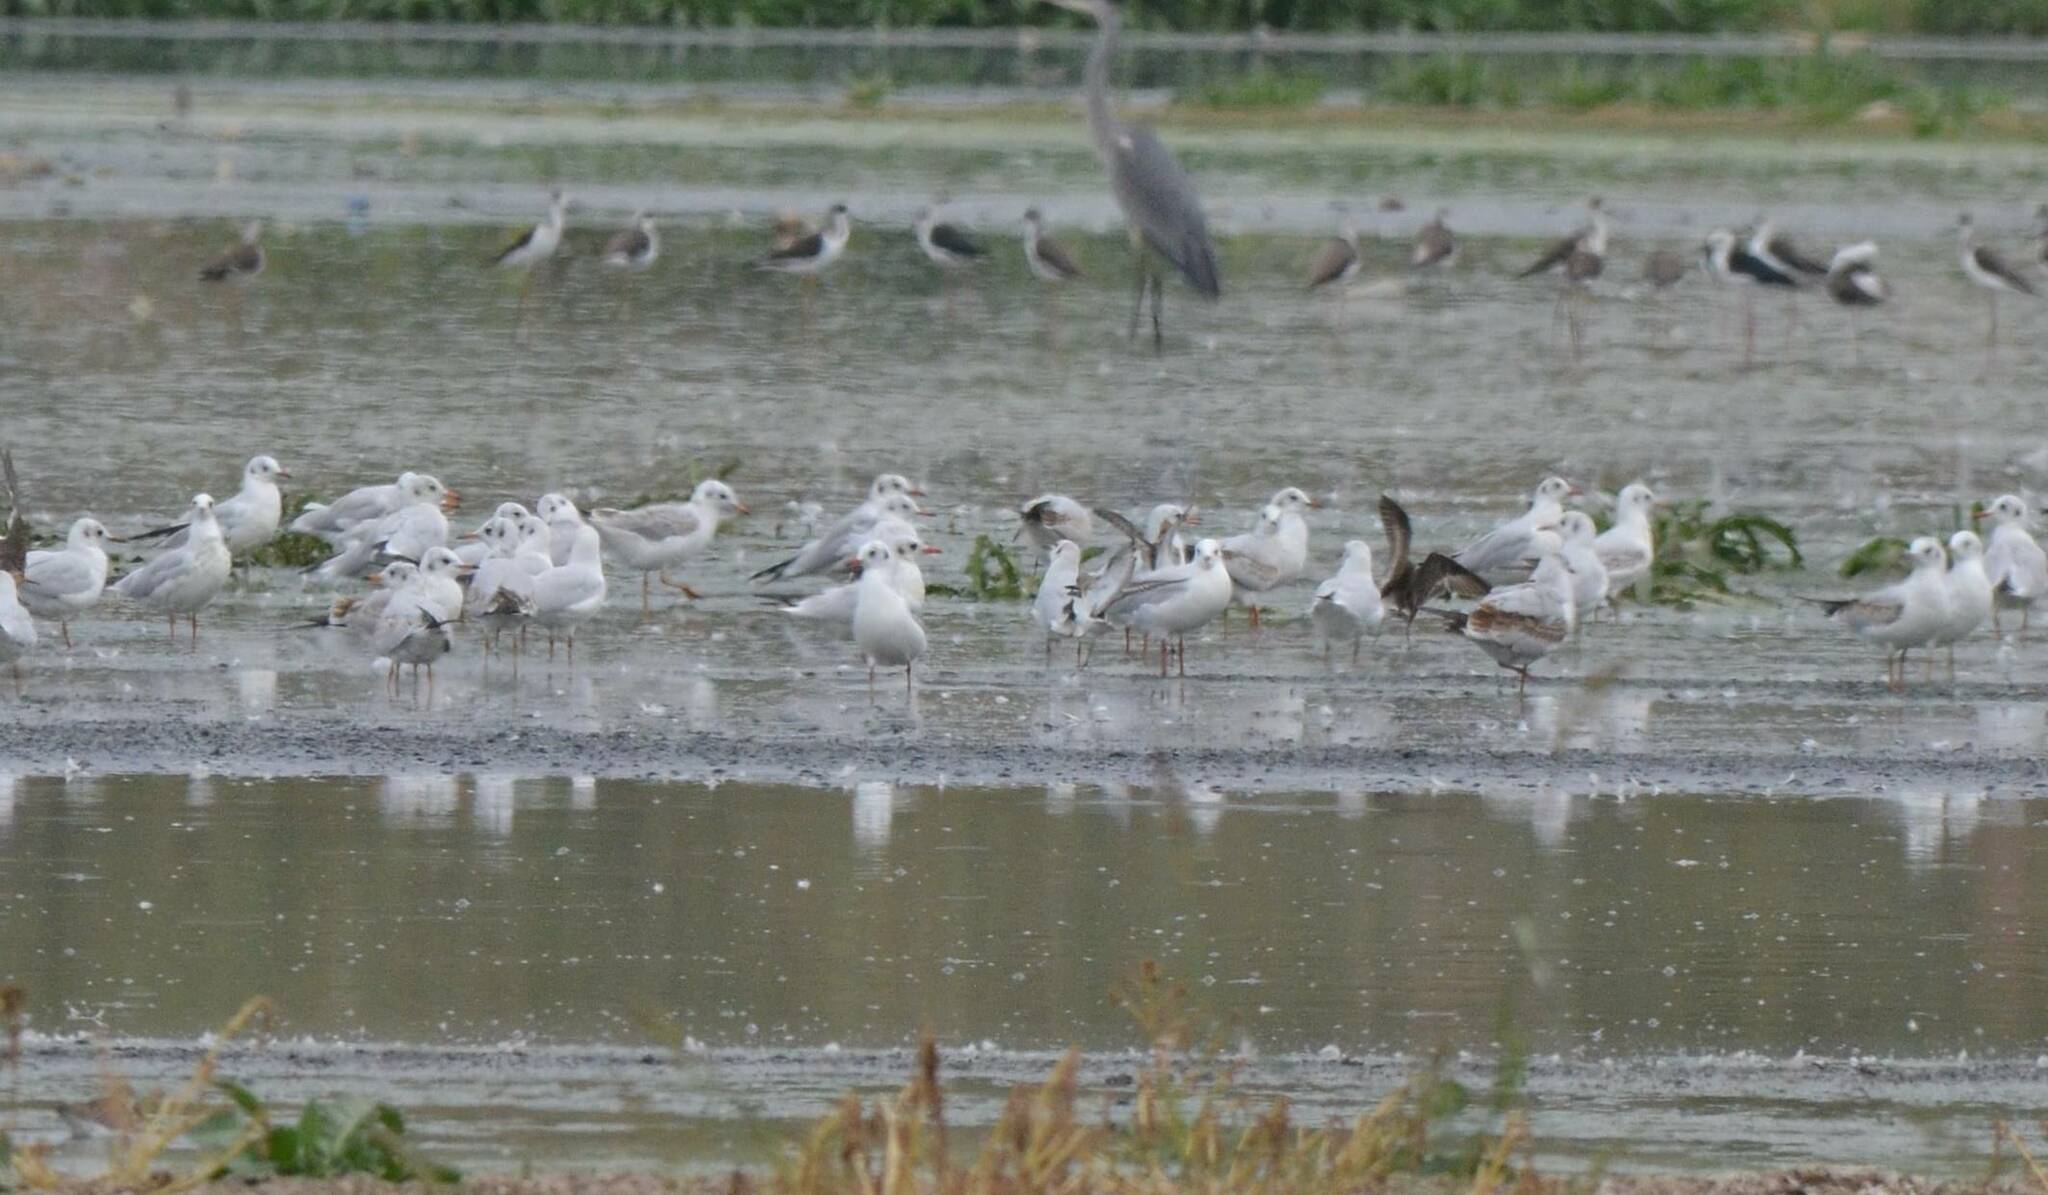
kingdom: Animalia
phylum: Chordata
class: Aves
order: Charadriiformes
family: Laridae
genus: Chroicocephalus
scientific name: Chroicocephalus ridibundus
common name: Black-headed gull
